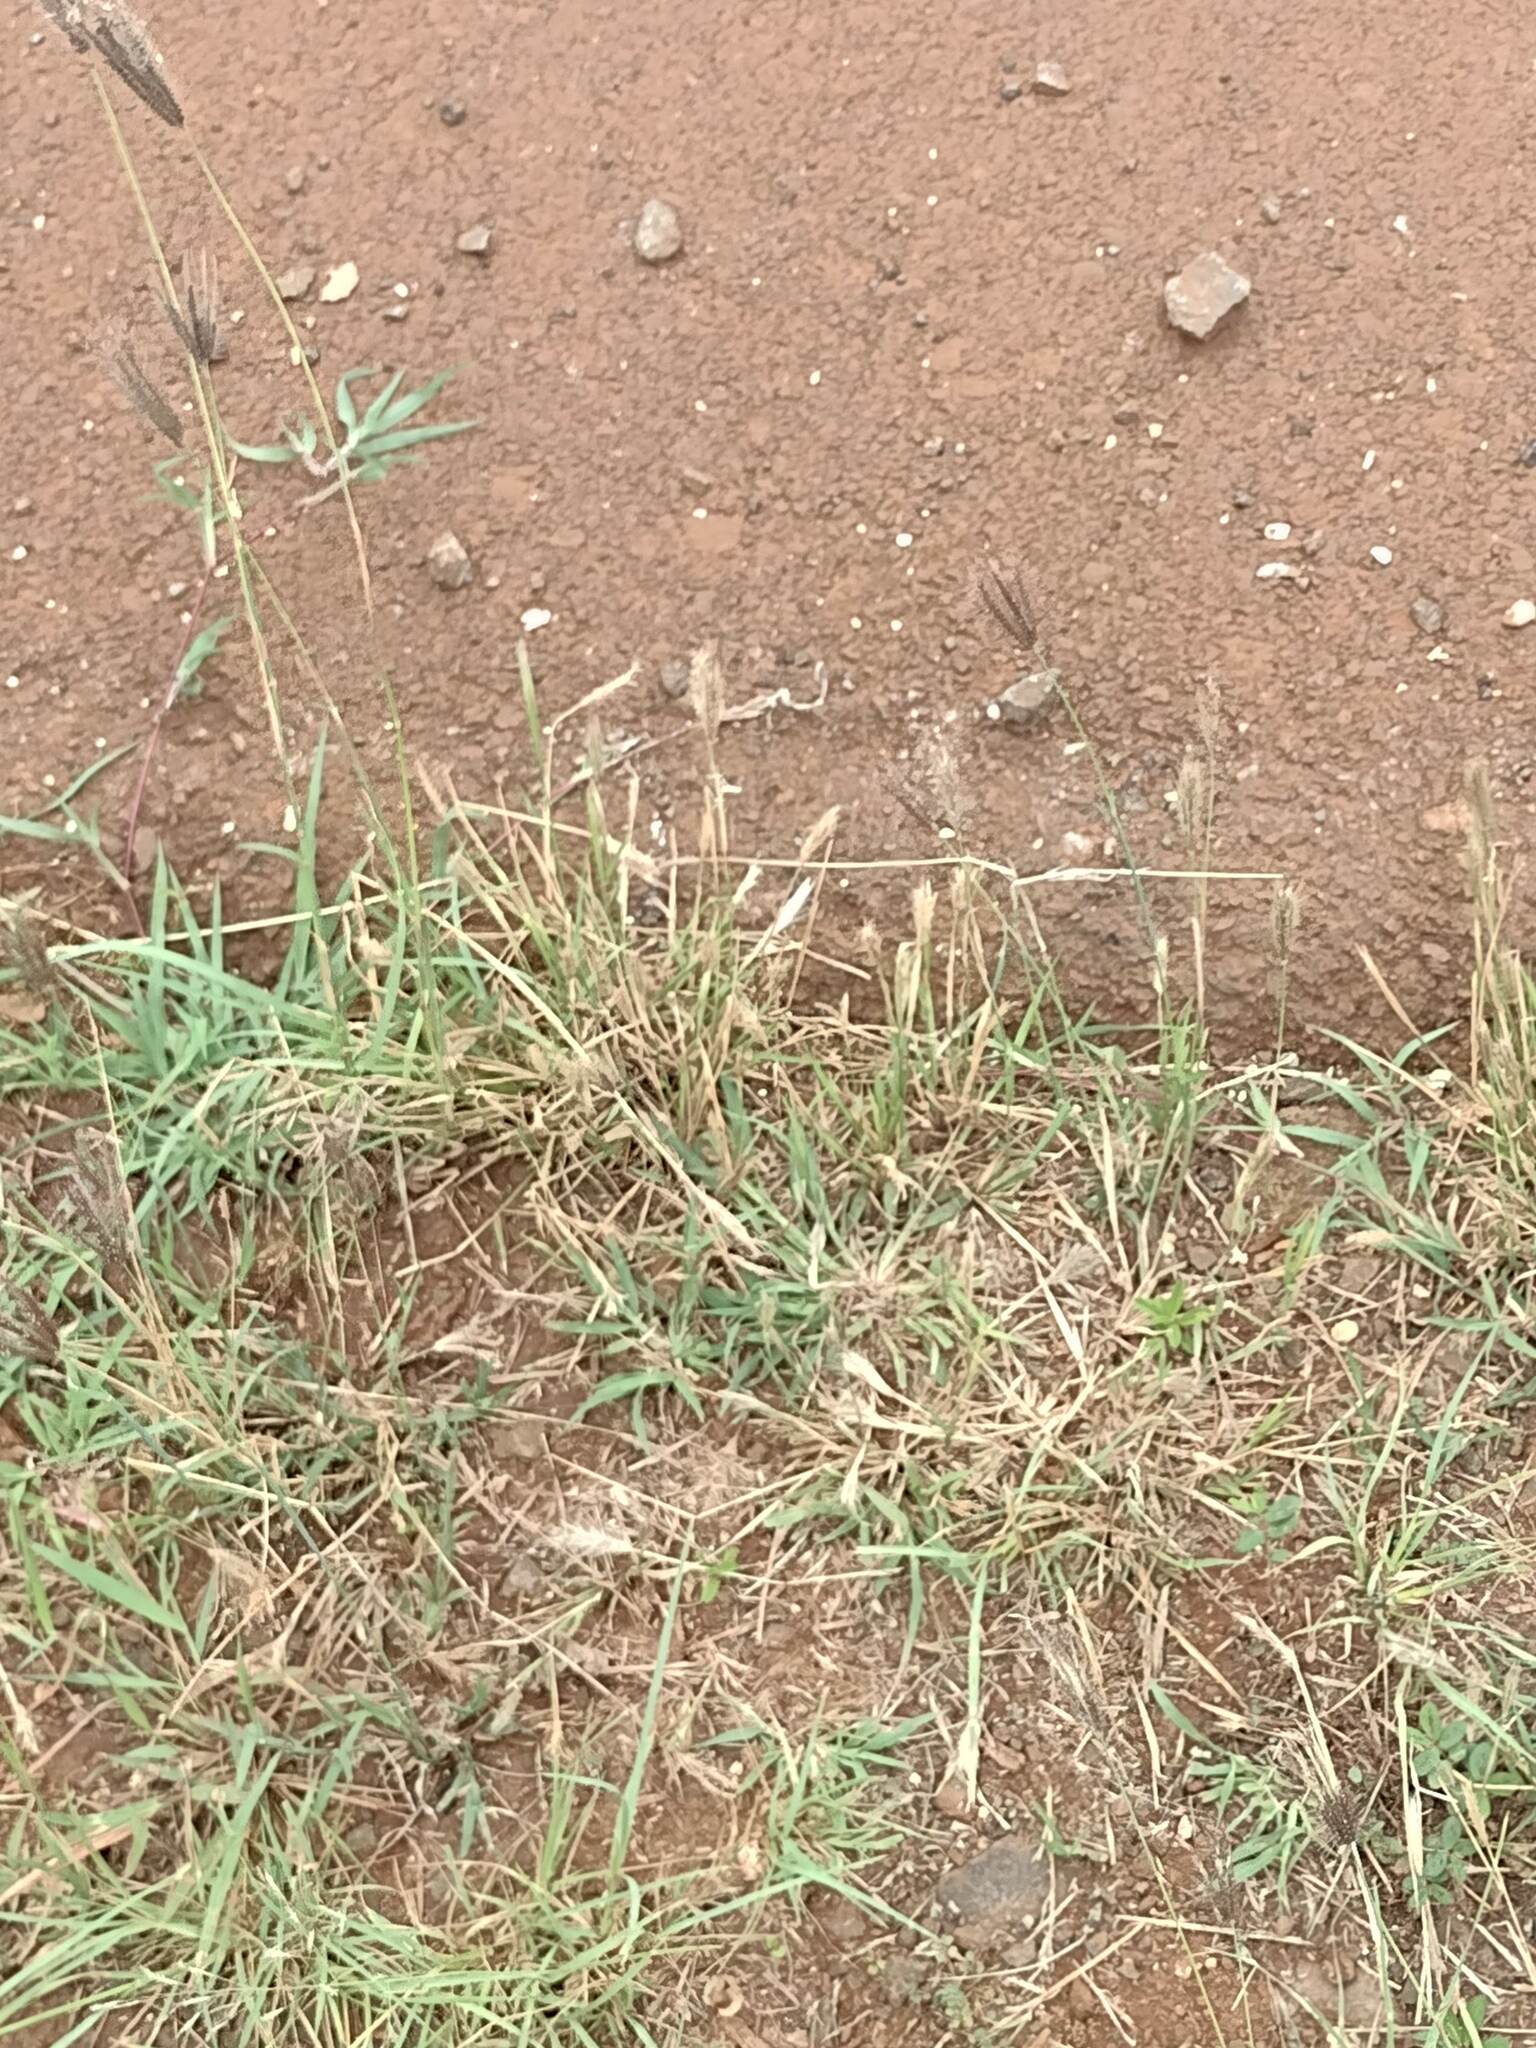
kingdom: Plantae
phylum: Tracheophyta
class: Liliopsida
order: Poales
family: Poaceae
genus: Chloris
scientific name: Chloris virgata
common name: Feathery rhodes-grass
